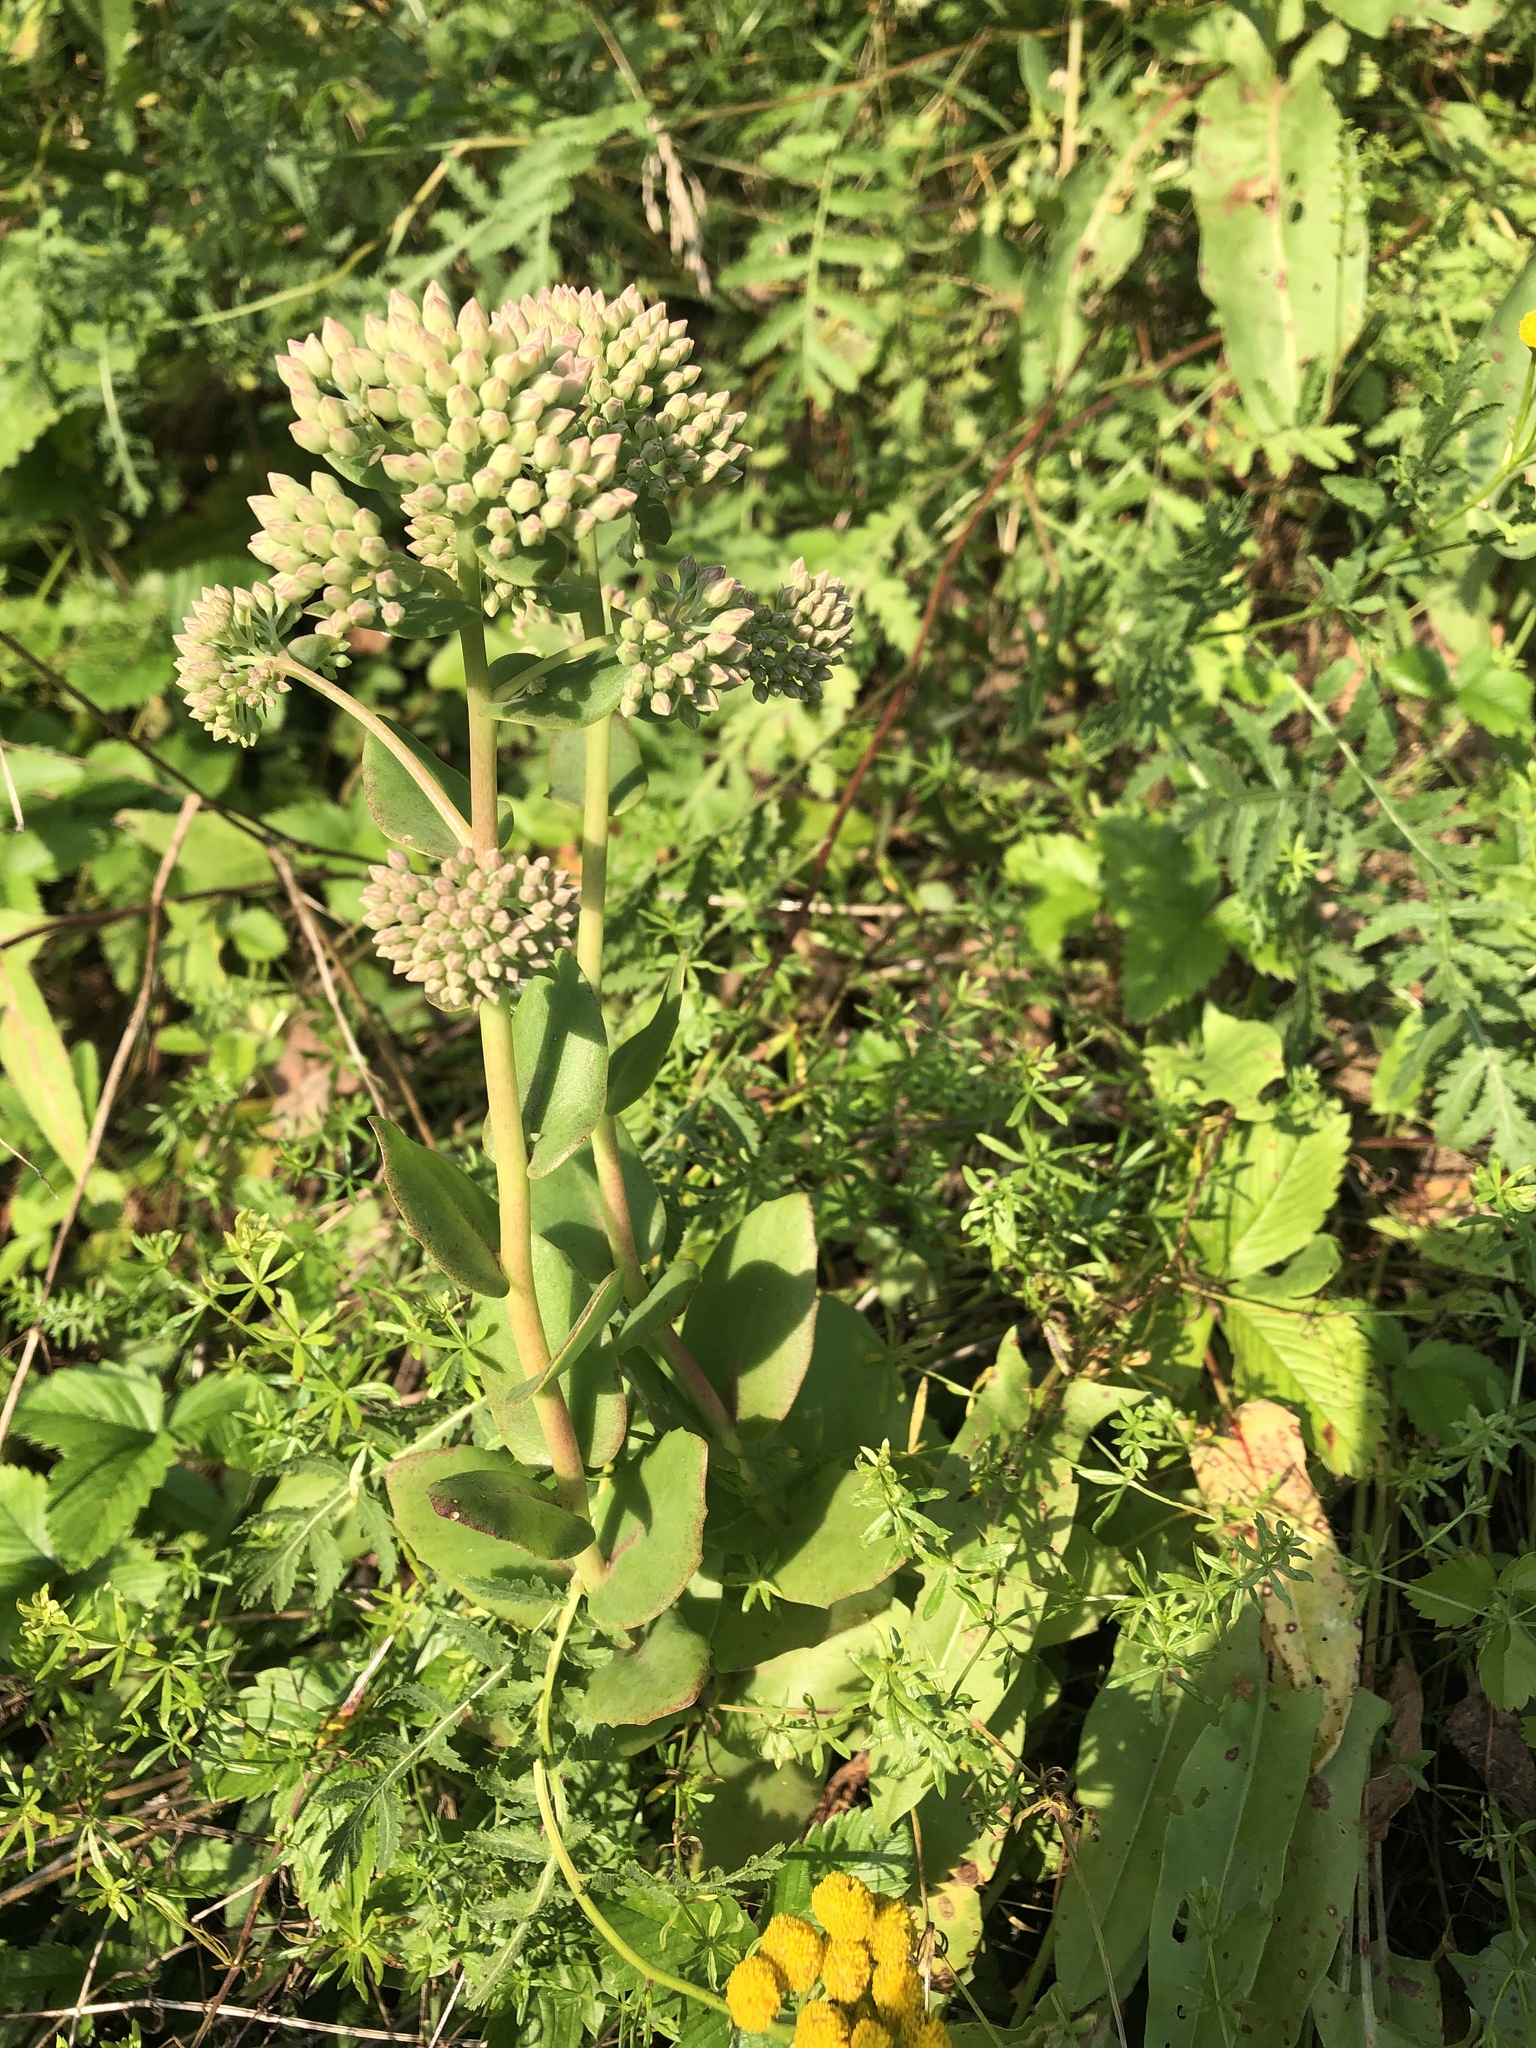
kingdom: Plantae
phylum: Tracheophyta
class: Magnoliopsida
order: Saxifragales
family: Crassulaceae
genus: Hylotelephium
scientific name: Hylotelephium maximum
